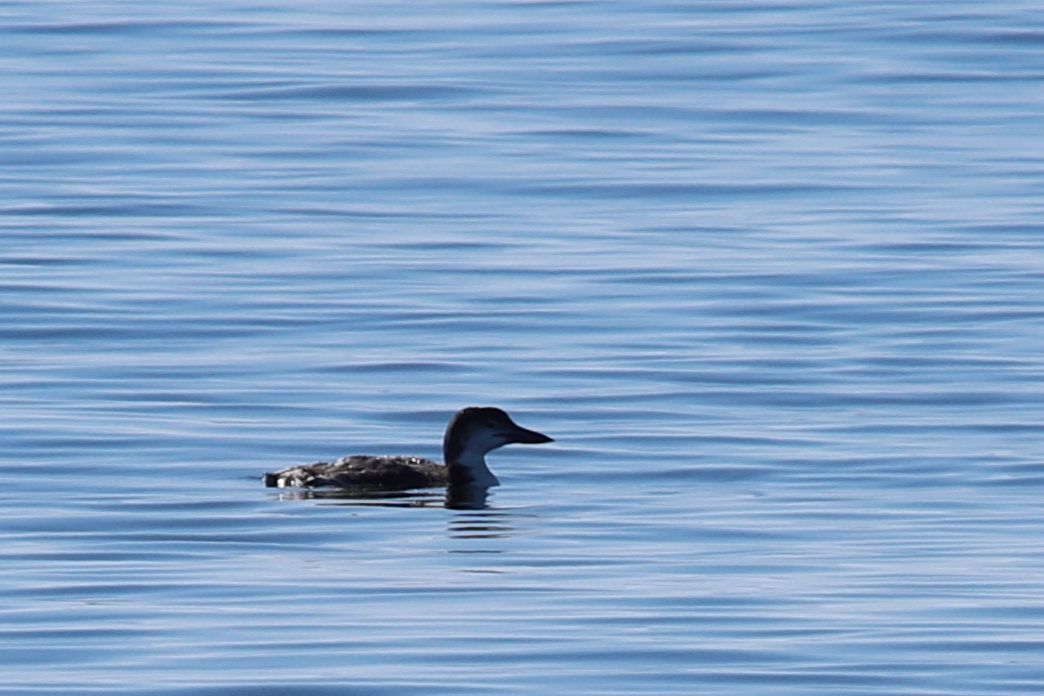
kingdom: Animalia
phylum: Chordata
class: Aves
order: Gaviiformes
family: Gaviidae
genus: Gavia
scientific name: Gavia immer
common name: Common loon
